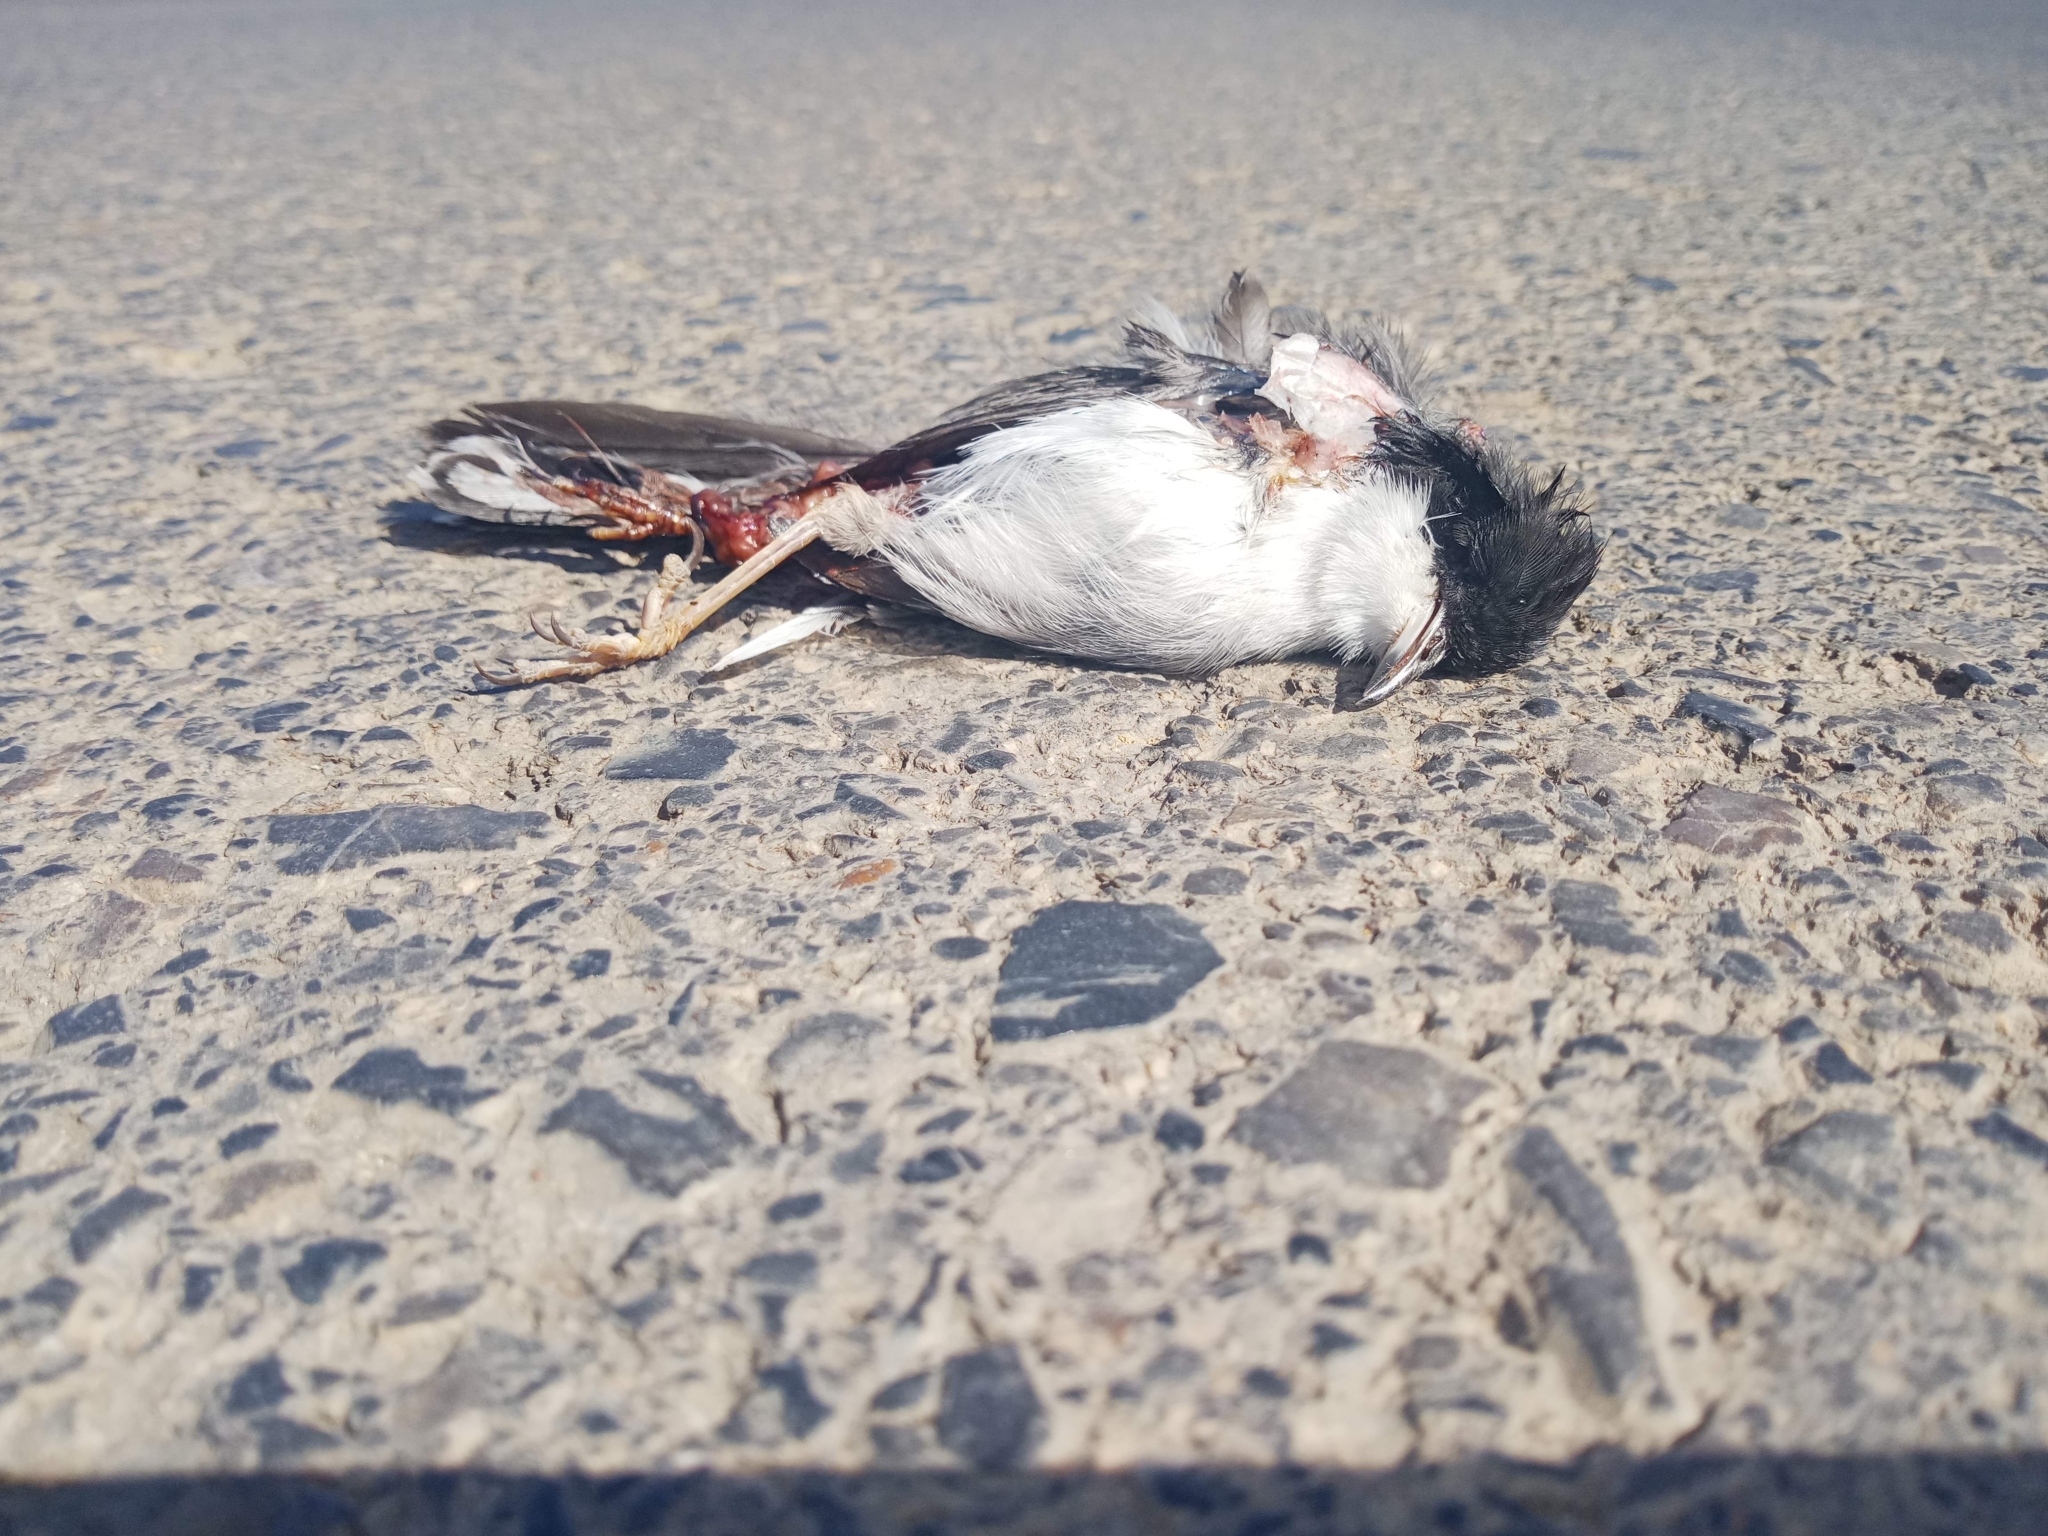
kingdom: Animalia
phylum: Chordata
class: Aves
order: Passeriformes
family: Sylviidae
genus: Curruca
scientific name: Curruca melanocephala
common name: Sardinian warbler
